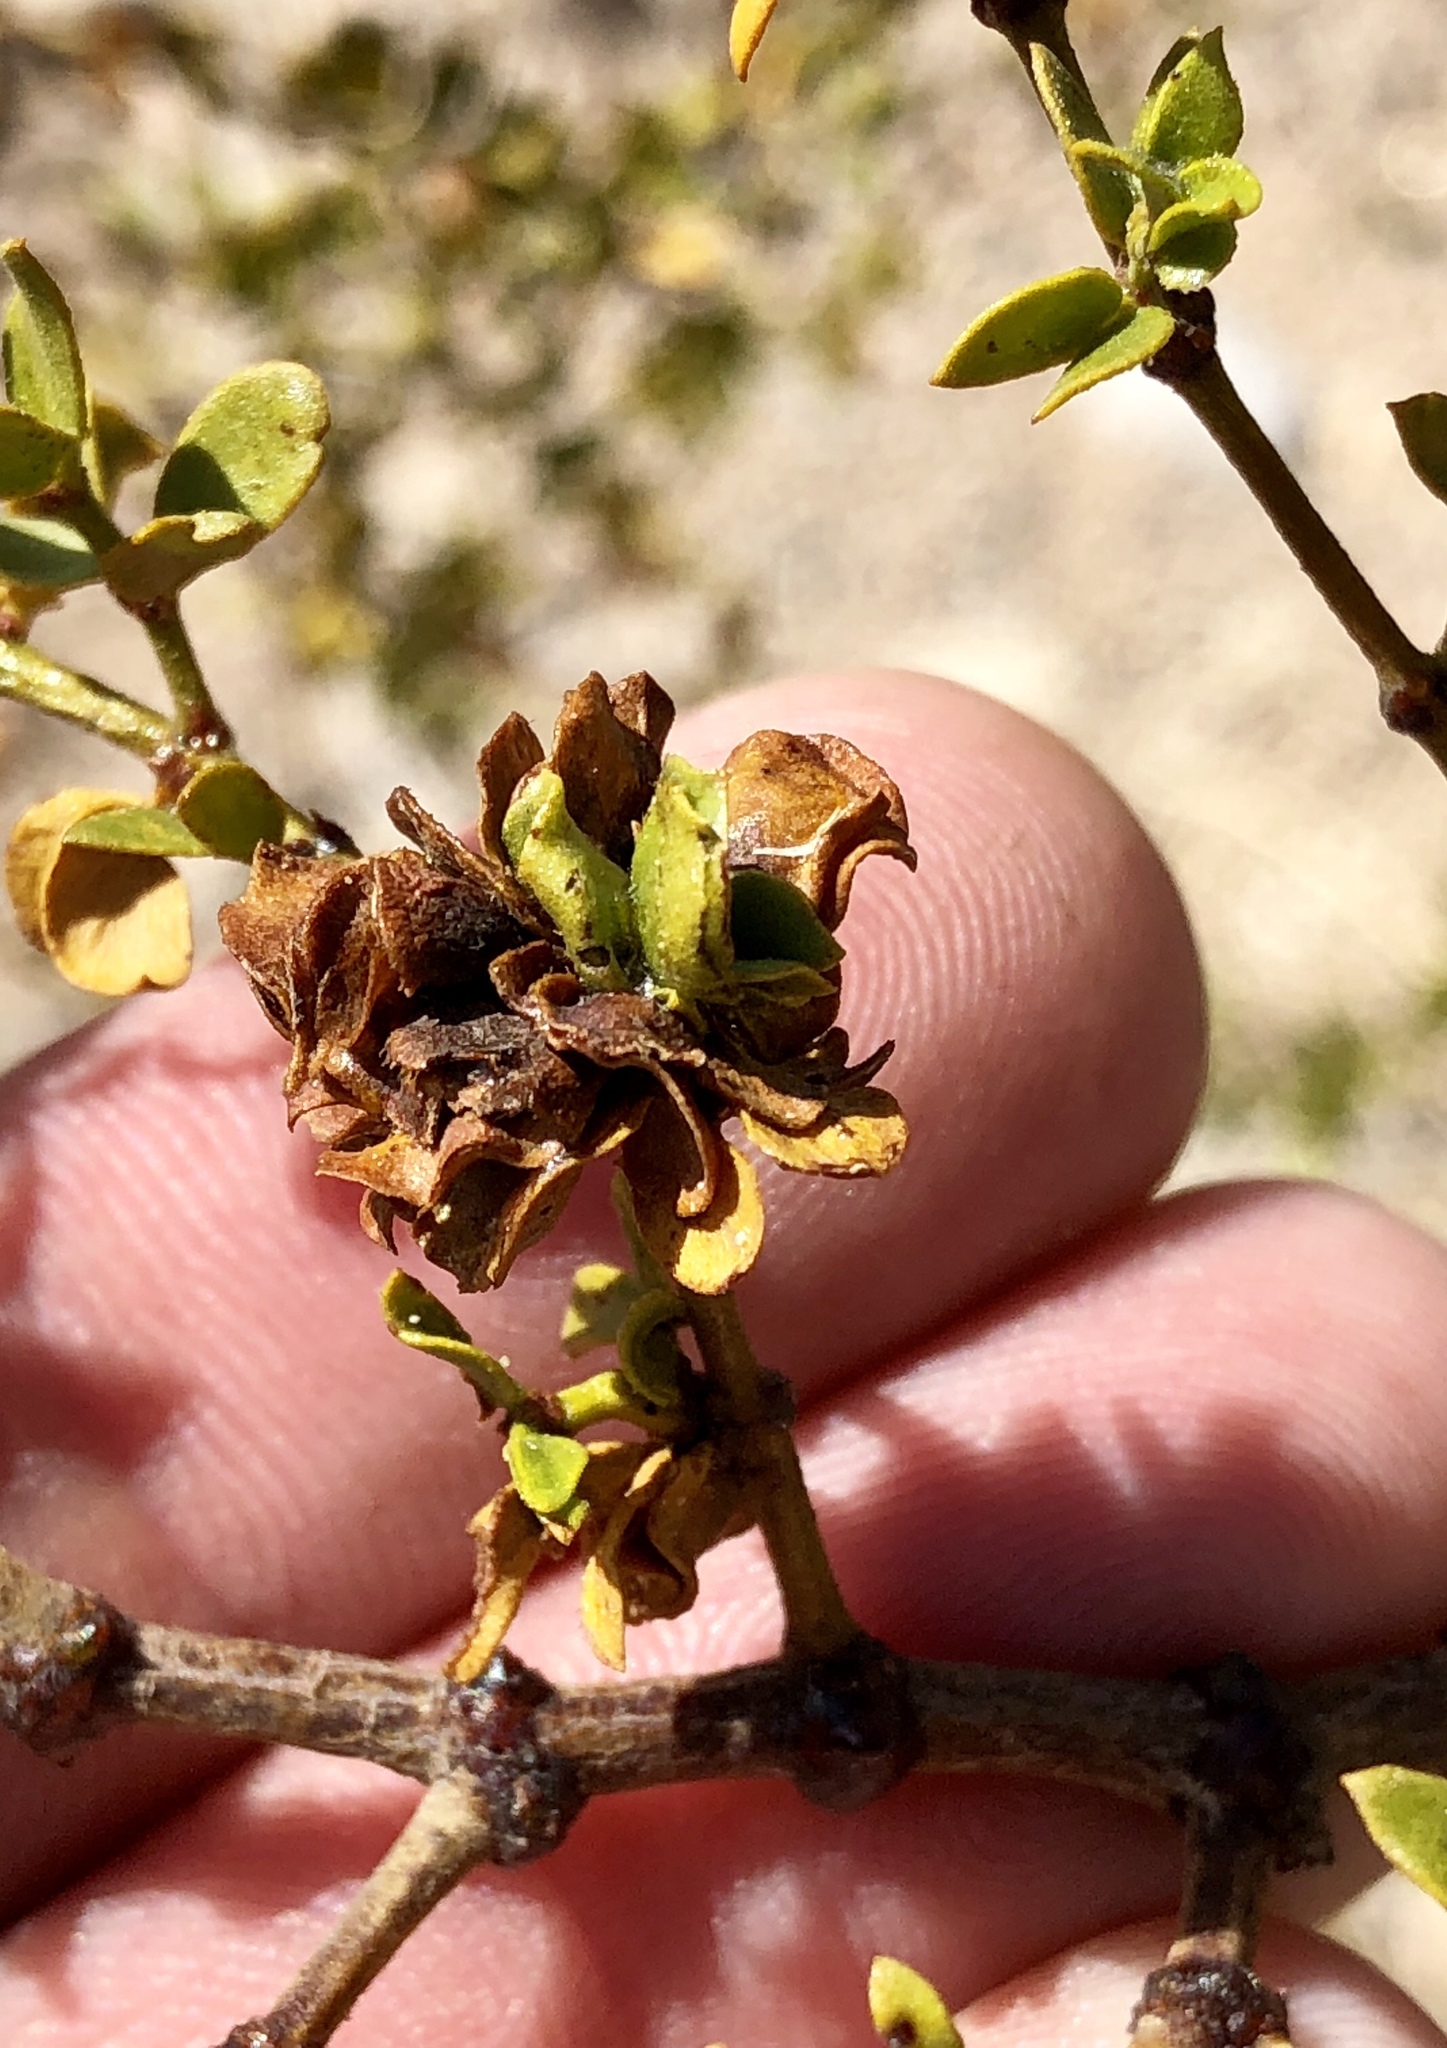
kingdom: Animalia
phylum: Arthropoda
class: Insecta
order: Diptera
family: Cecidomyiidae
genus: Contarinia
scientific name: Contarinia
